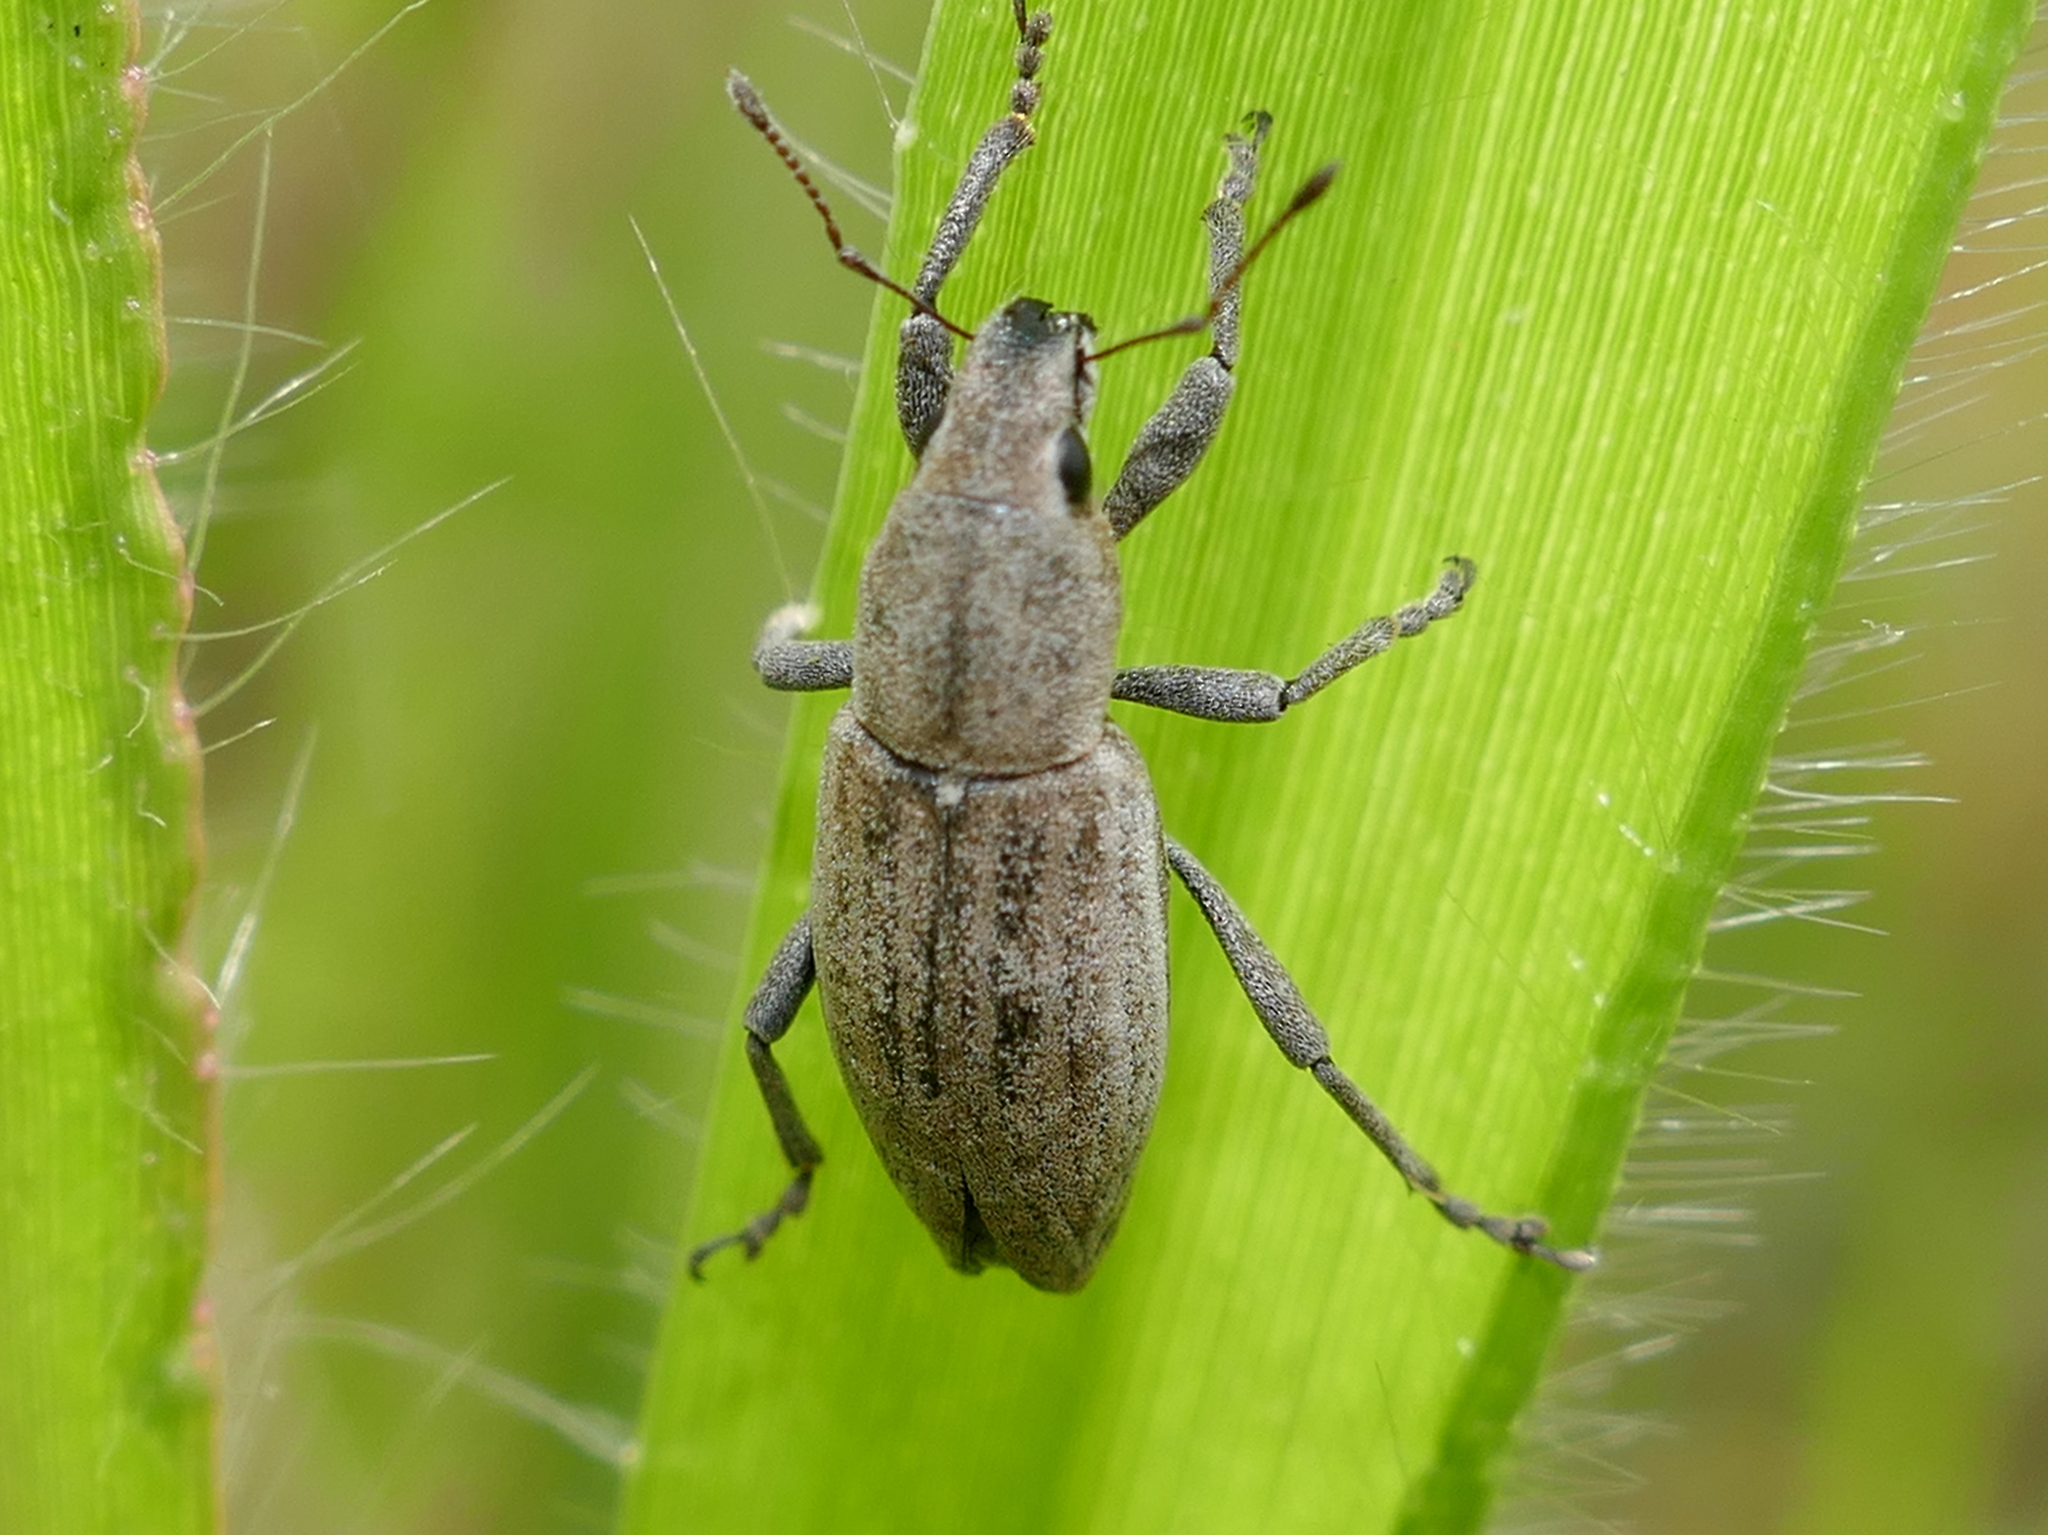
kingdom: Animalia
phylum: Arthropoda
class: Insecta
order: Coleoptera
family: Curculionidae
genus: Tanymecus
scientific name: Tanymecus lacaena
